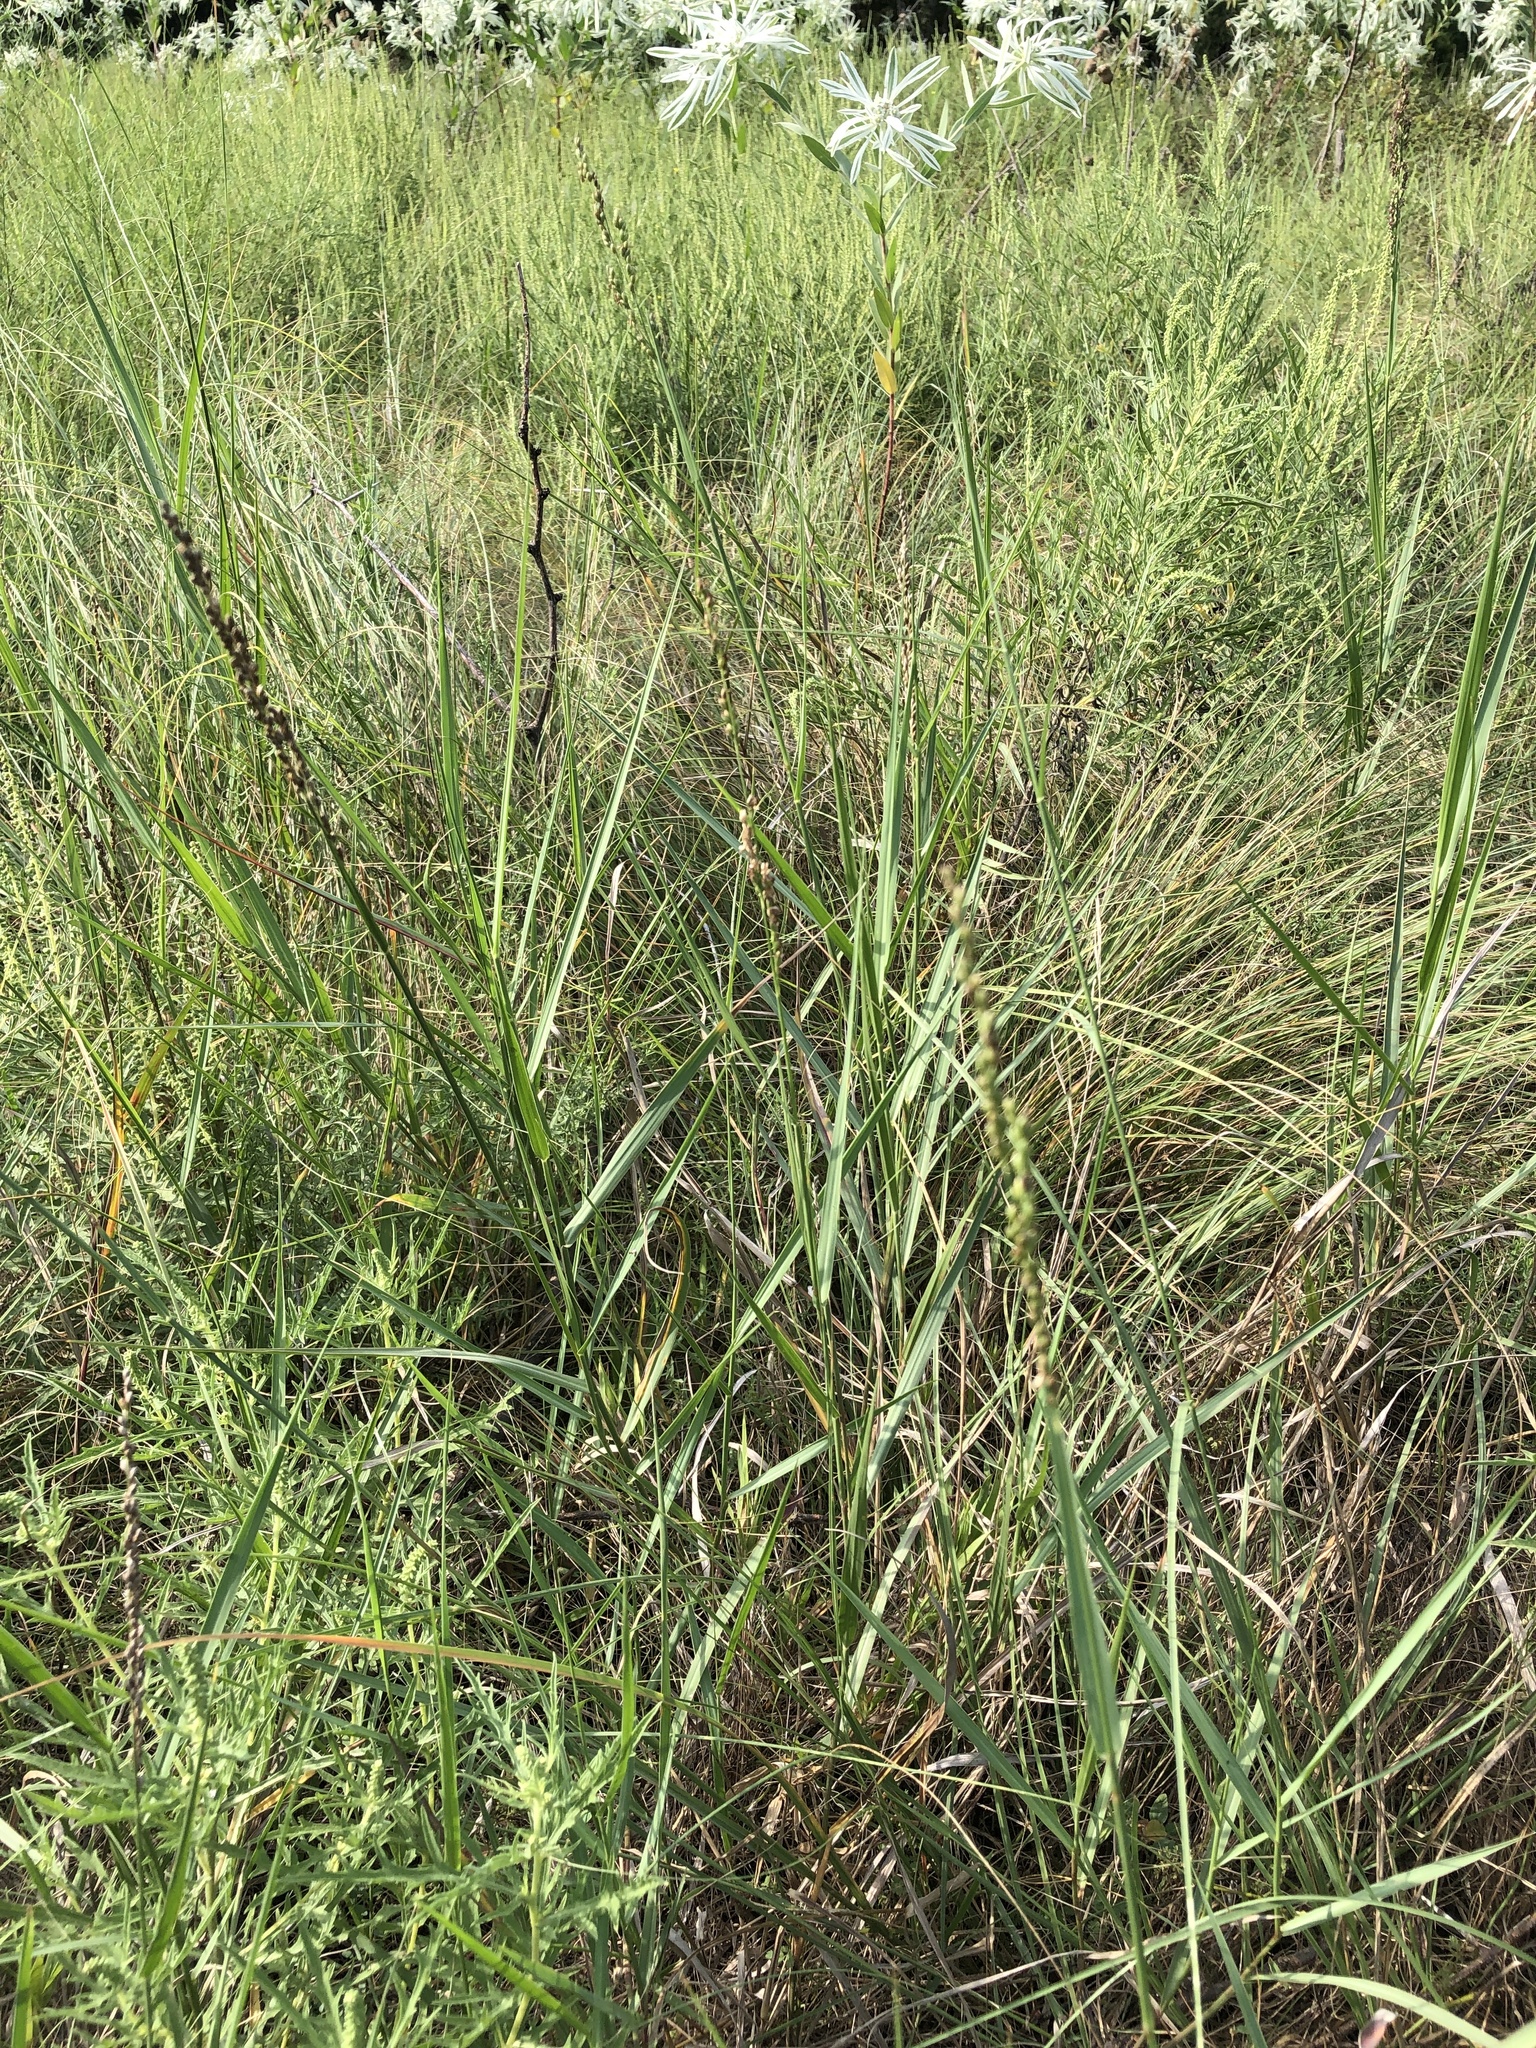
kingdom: Plantae
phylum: Tracheophyta
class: Liliopsida
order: Poales
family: Poaceae
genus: Hopia
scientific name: Hopia obtusa
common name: Vine-mesquite
